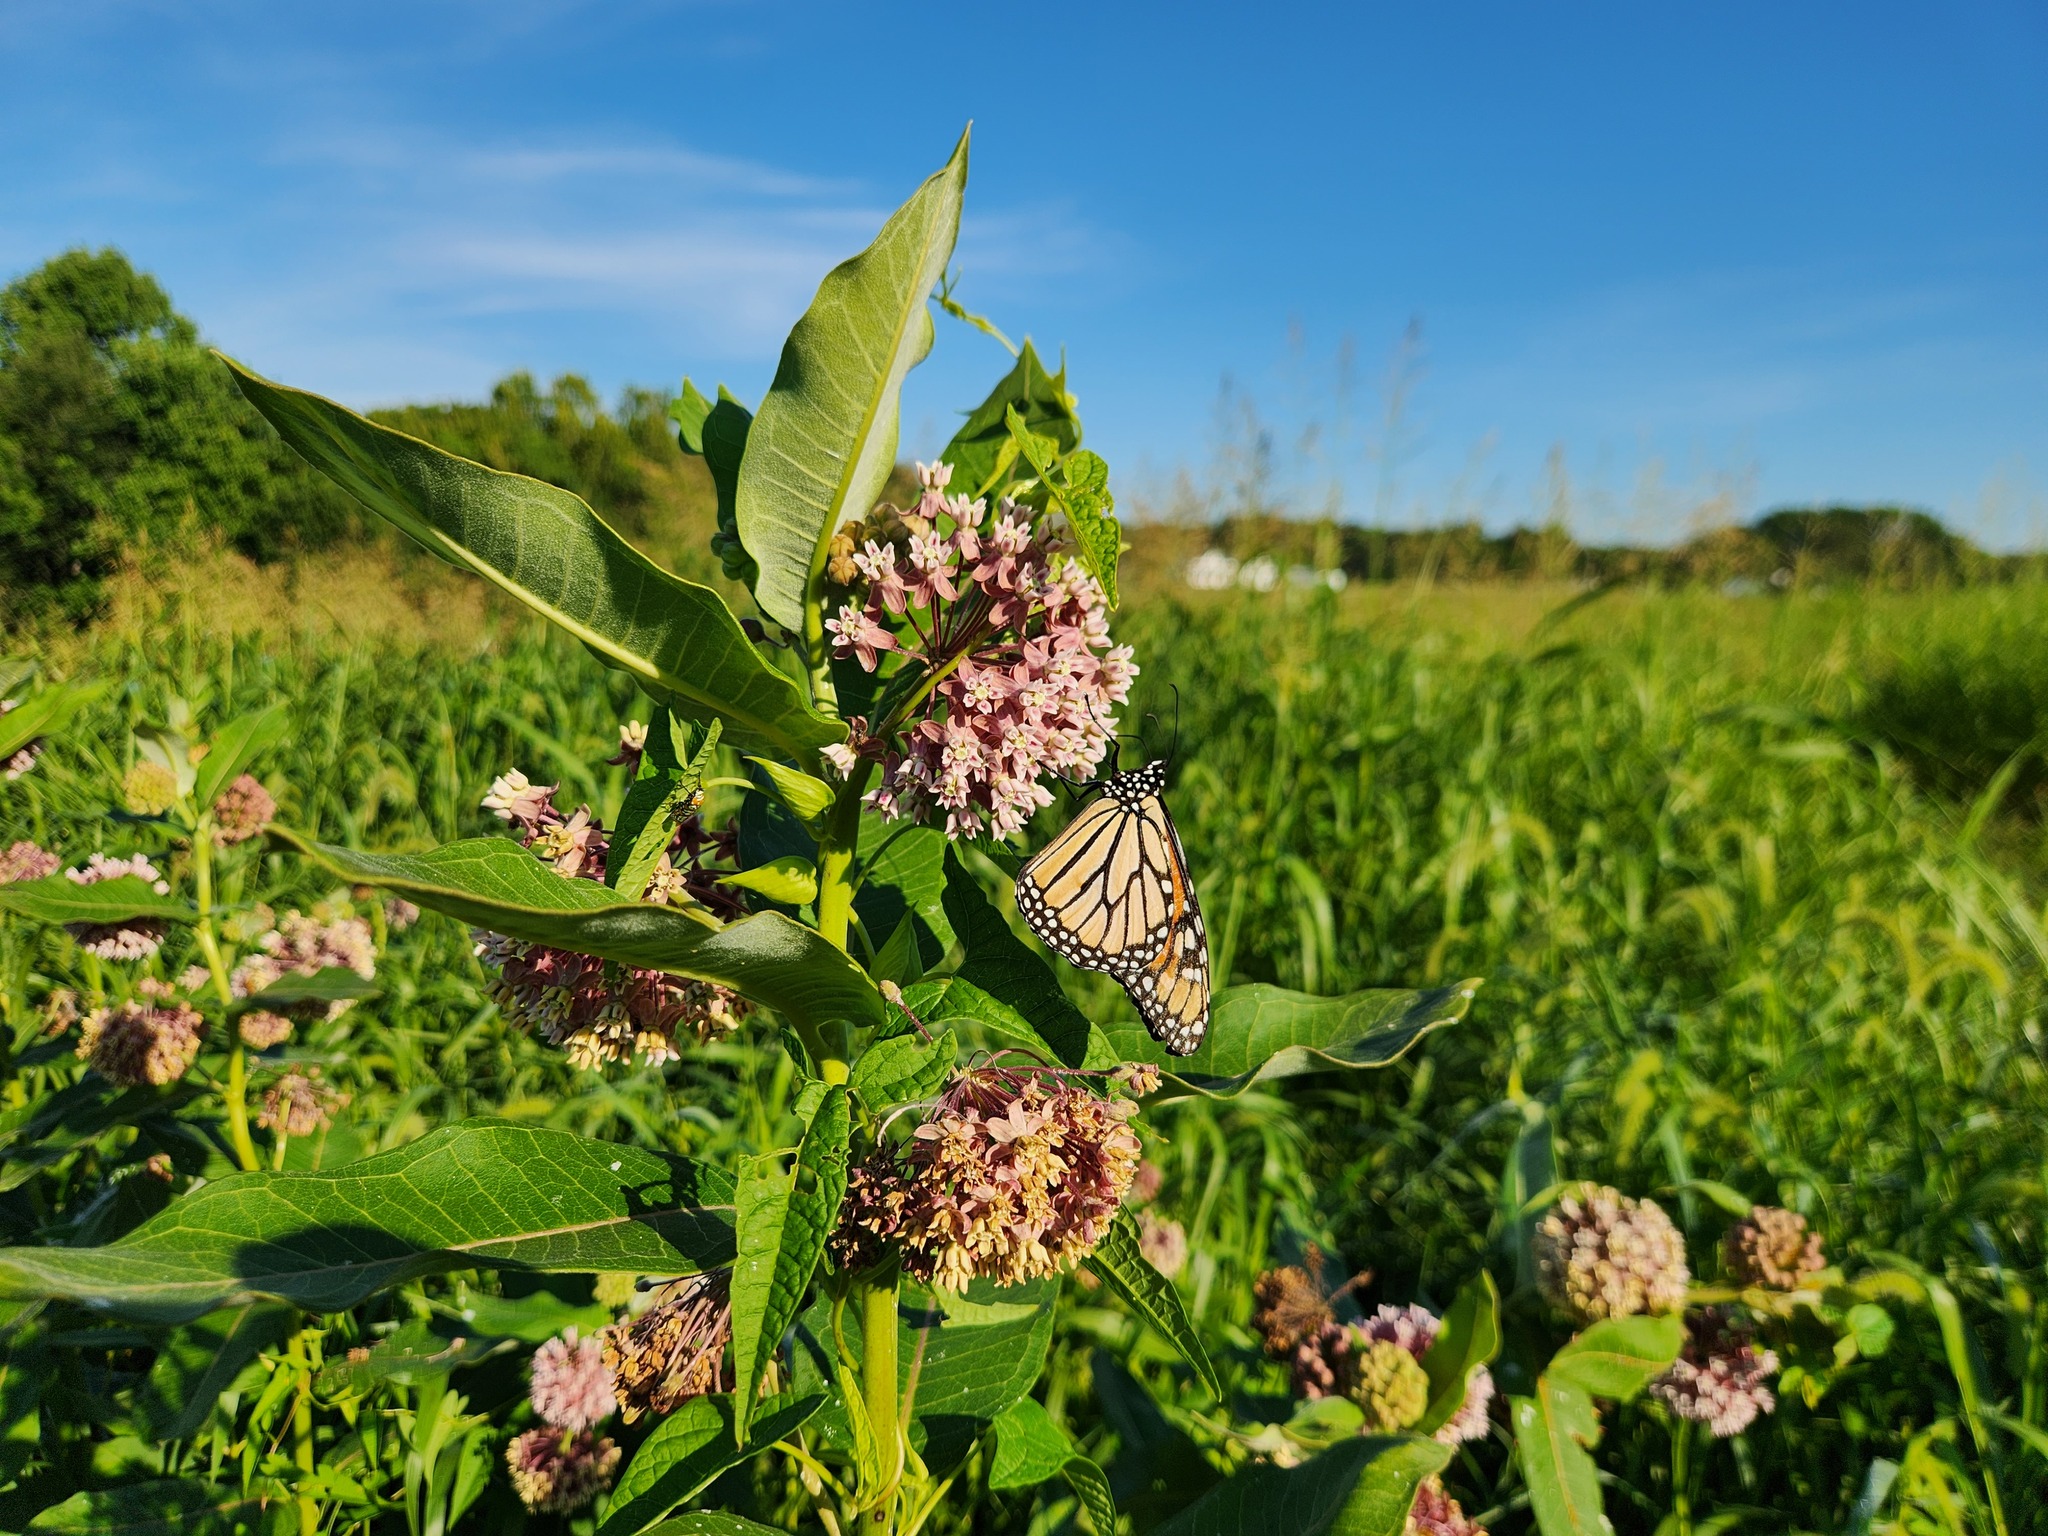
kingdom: Animalia
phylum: Arthropoda
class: Insecta
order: Lepidoptera
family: Nymphalidae
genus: Danaus
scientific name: Danaus plexippus
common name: Monarch
